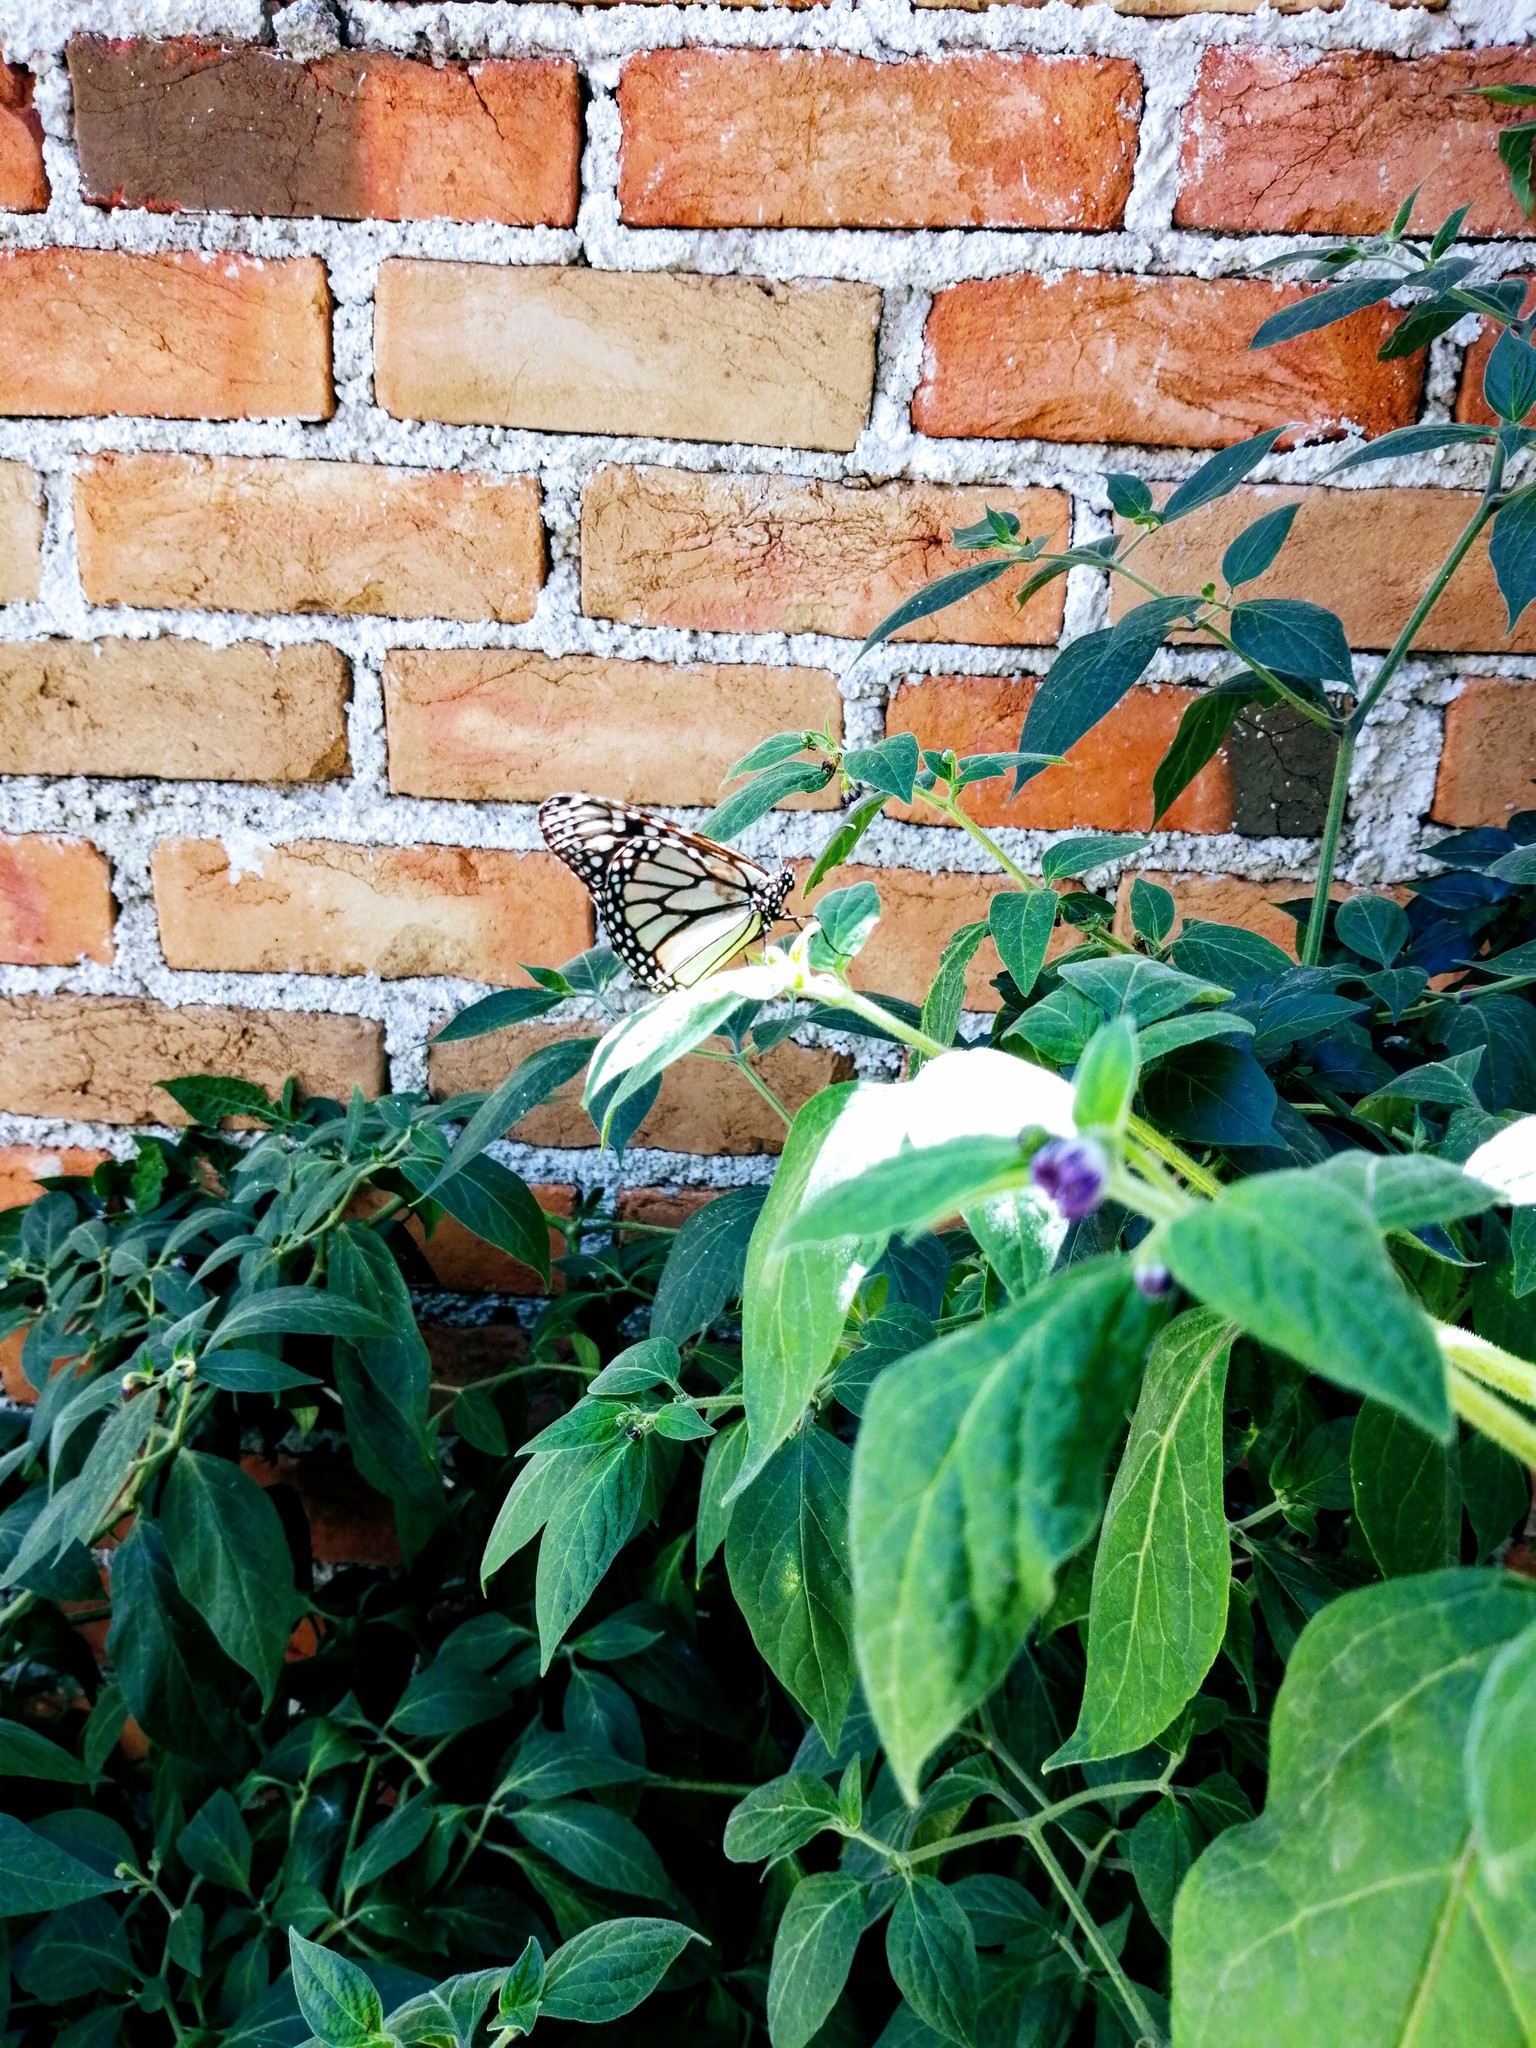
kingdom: Animalia
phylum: Arthropoda
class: Insecta
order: Lepidoptera
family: Nymphalidae
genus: Danaus
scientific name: Danaus plexippus
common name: Monarch
